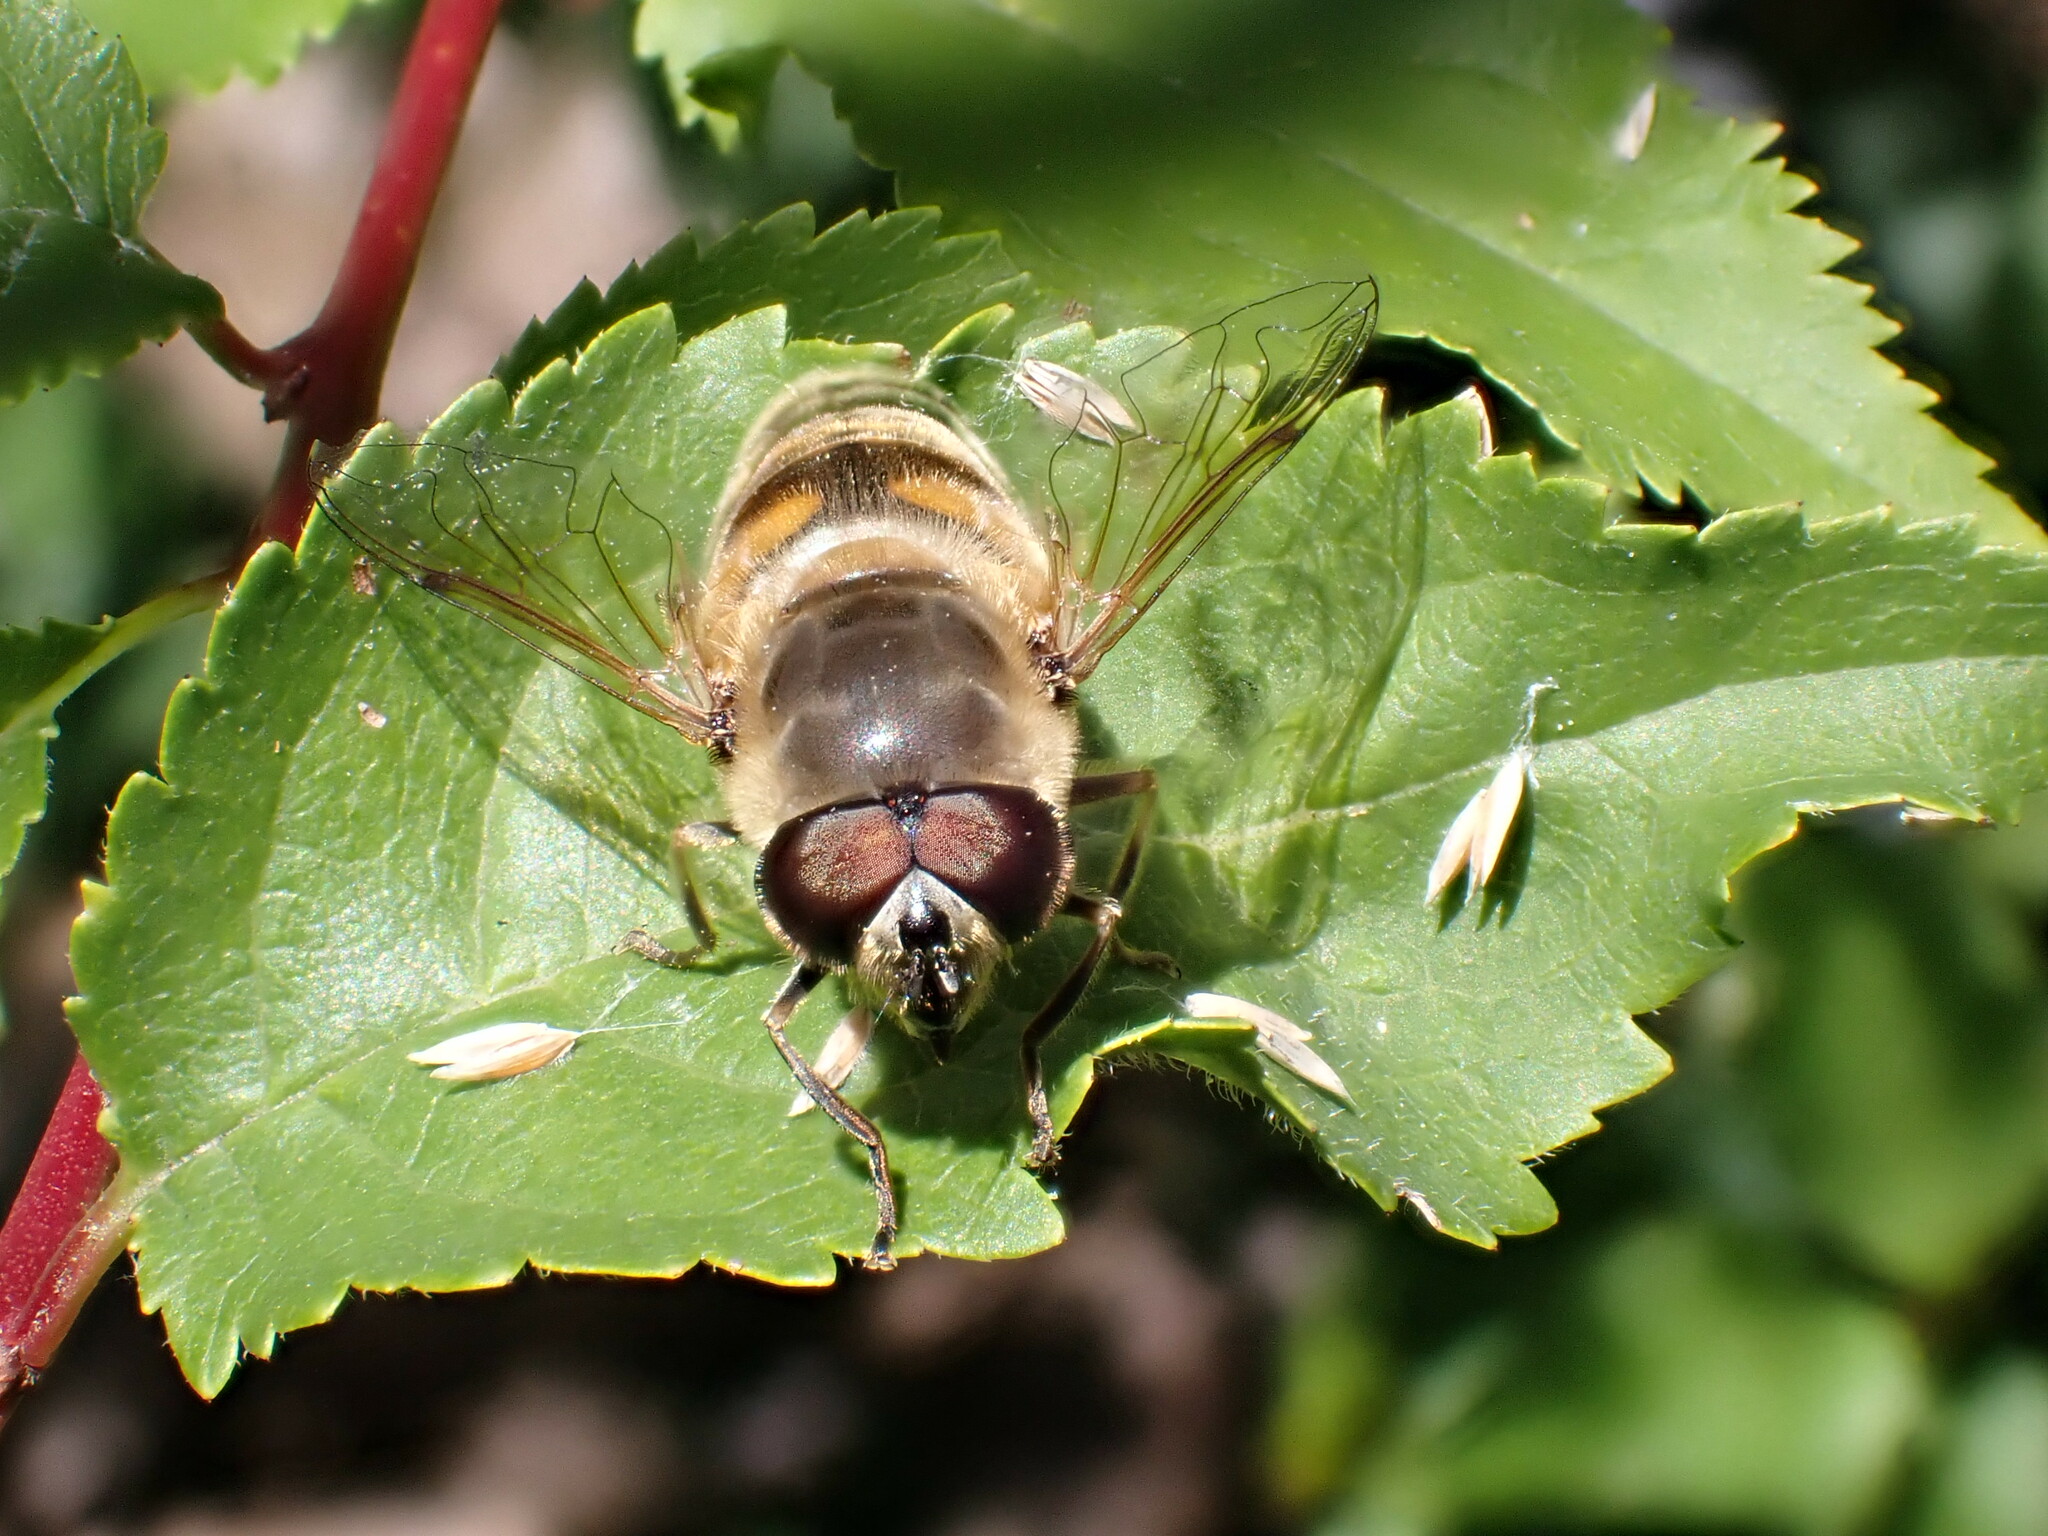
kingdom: Animalia
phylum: Arthropoda
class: Insecta
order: Diptera
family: Syrphidae
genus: Eristalis
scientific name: Eristalis tenax
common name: Drone fly
